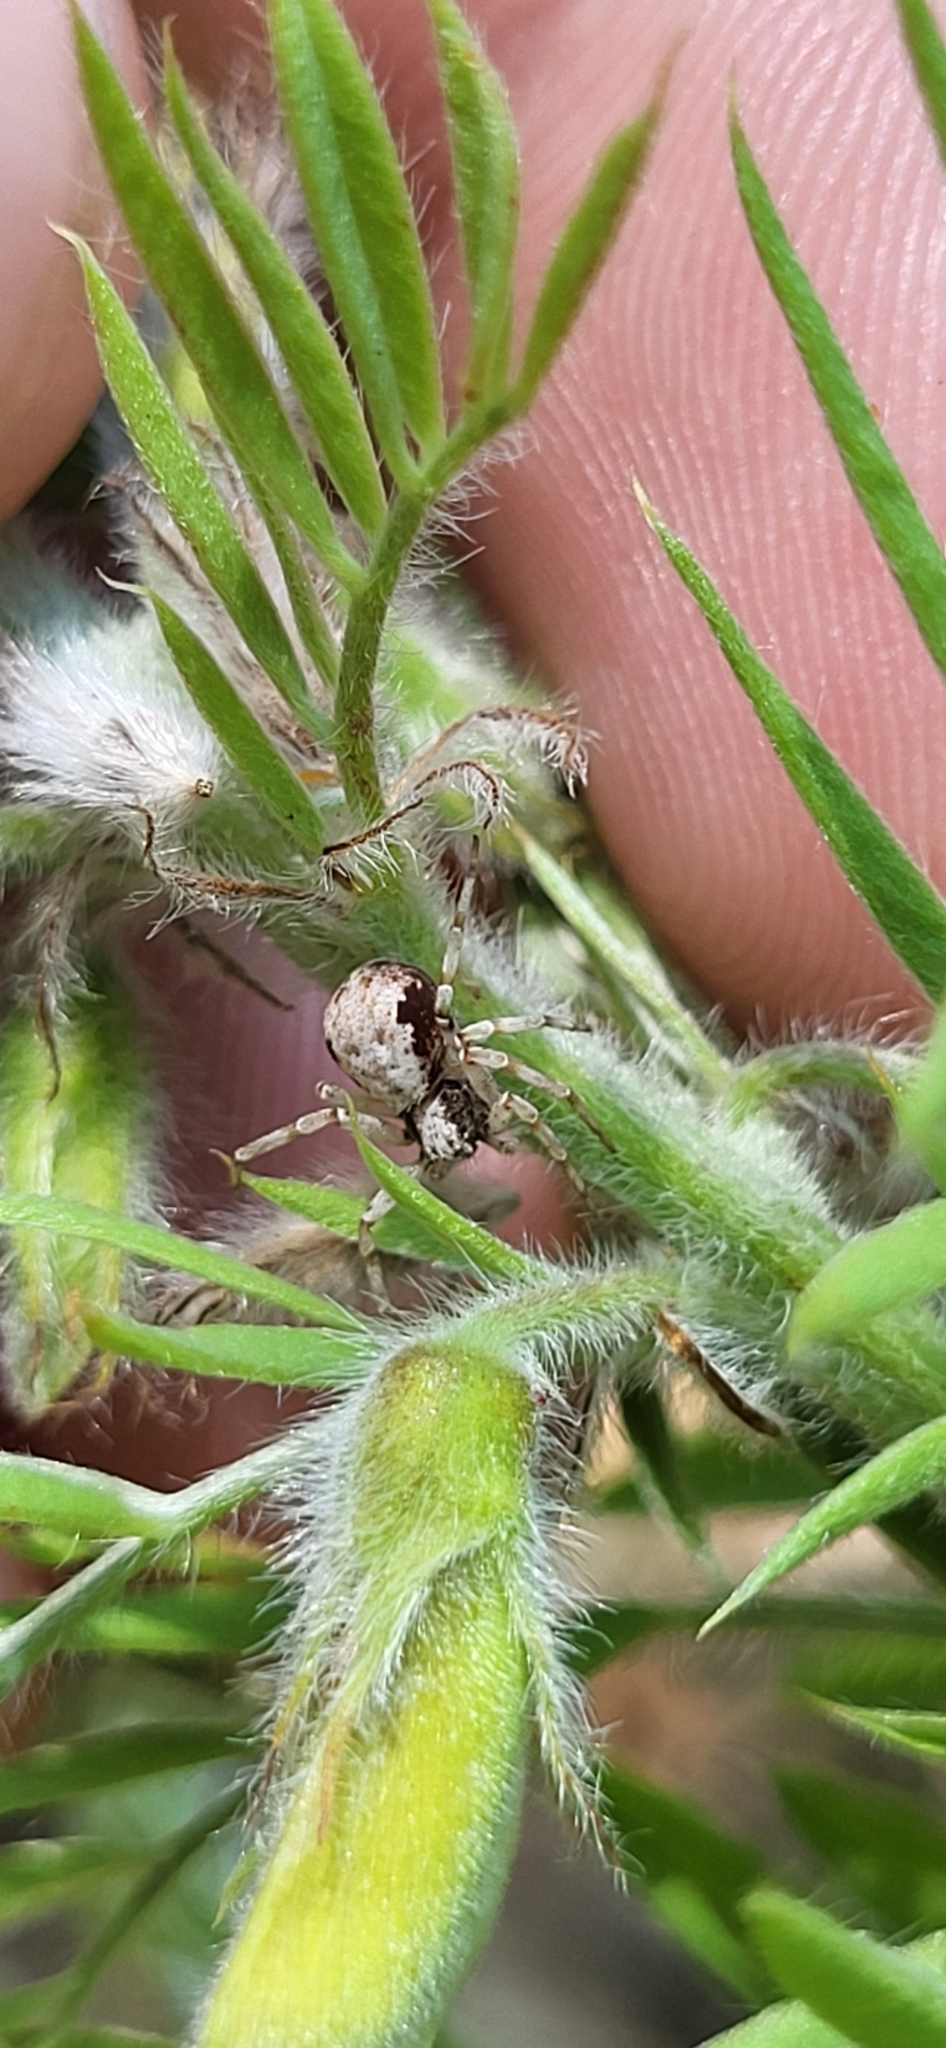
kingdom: Animalia
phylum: Arthropoda
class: Arachnida
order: Araneae
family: Philodromidae
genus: Philodromus
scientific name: Philodromus marxi
